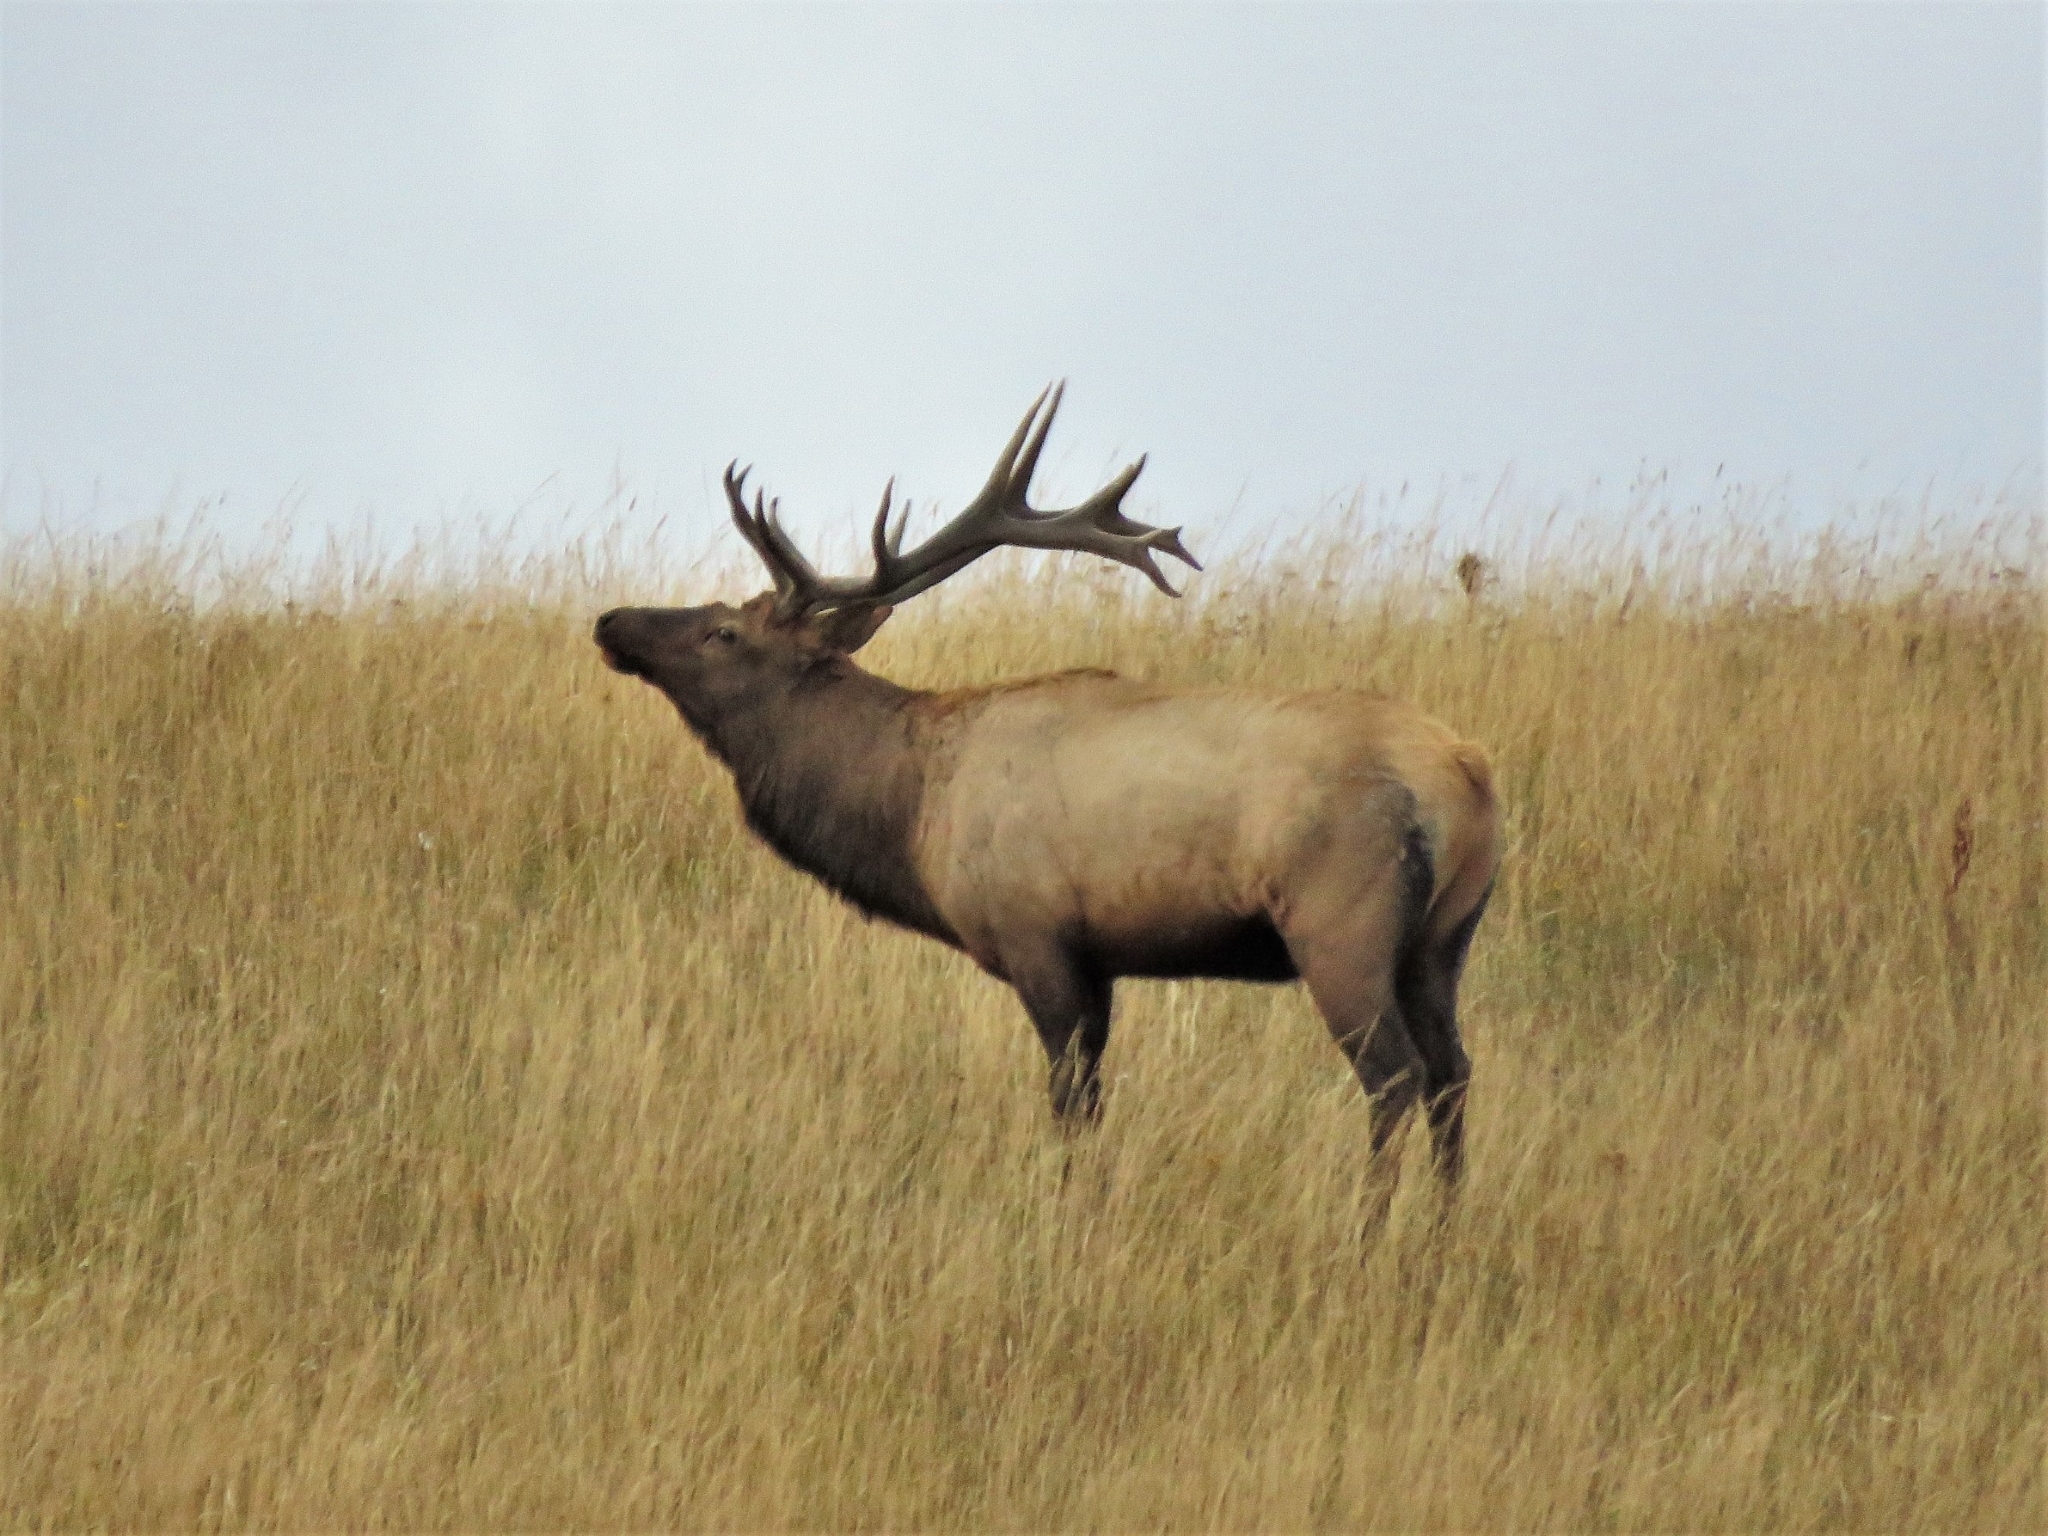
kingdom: Animalia
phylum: Chordata
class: Mammalia
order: Artiodactyla
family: Cervidae
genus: Cervus
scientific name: Cervus elaphus
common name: Red deer
